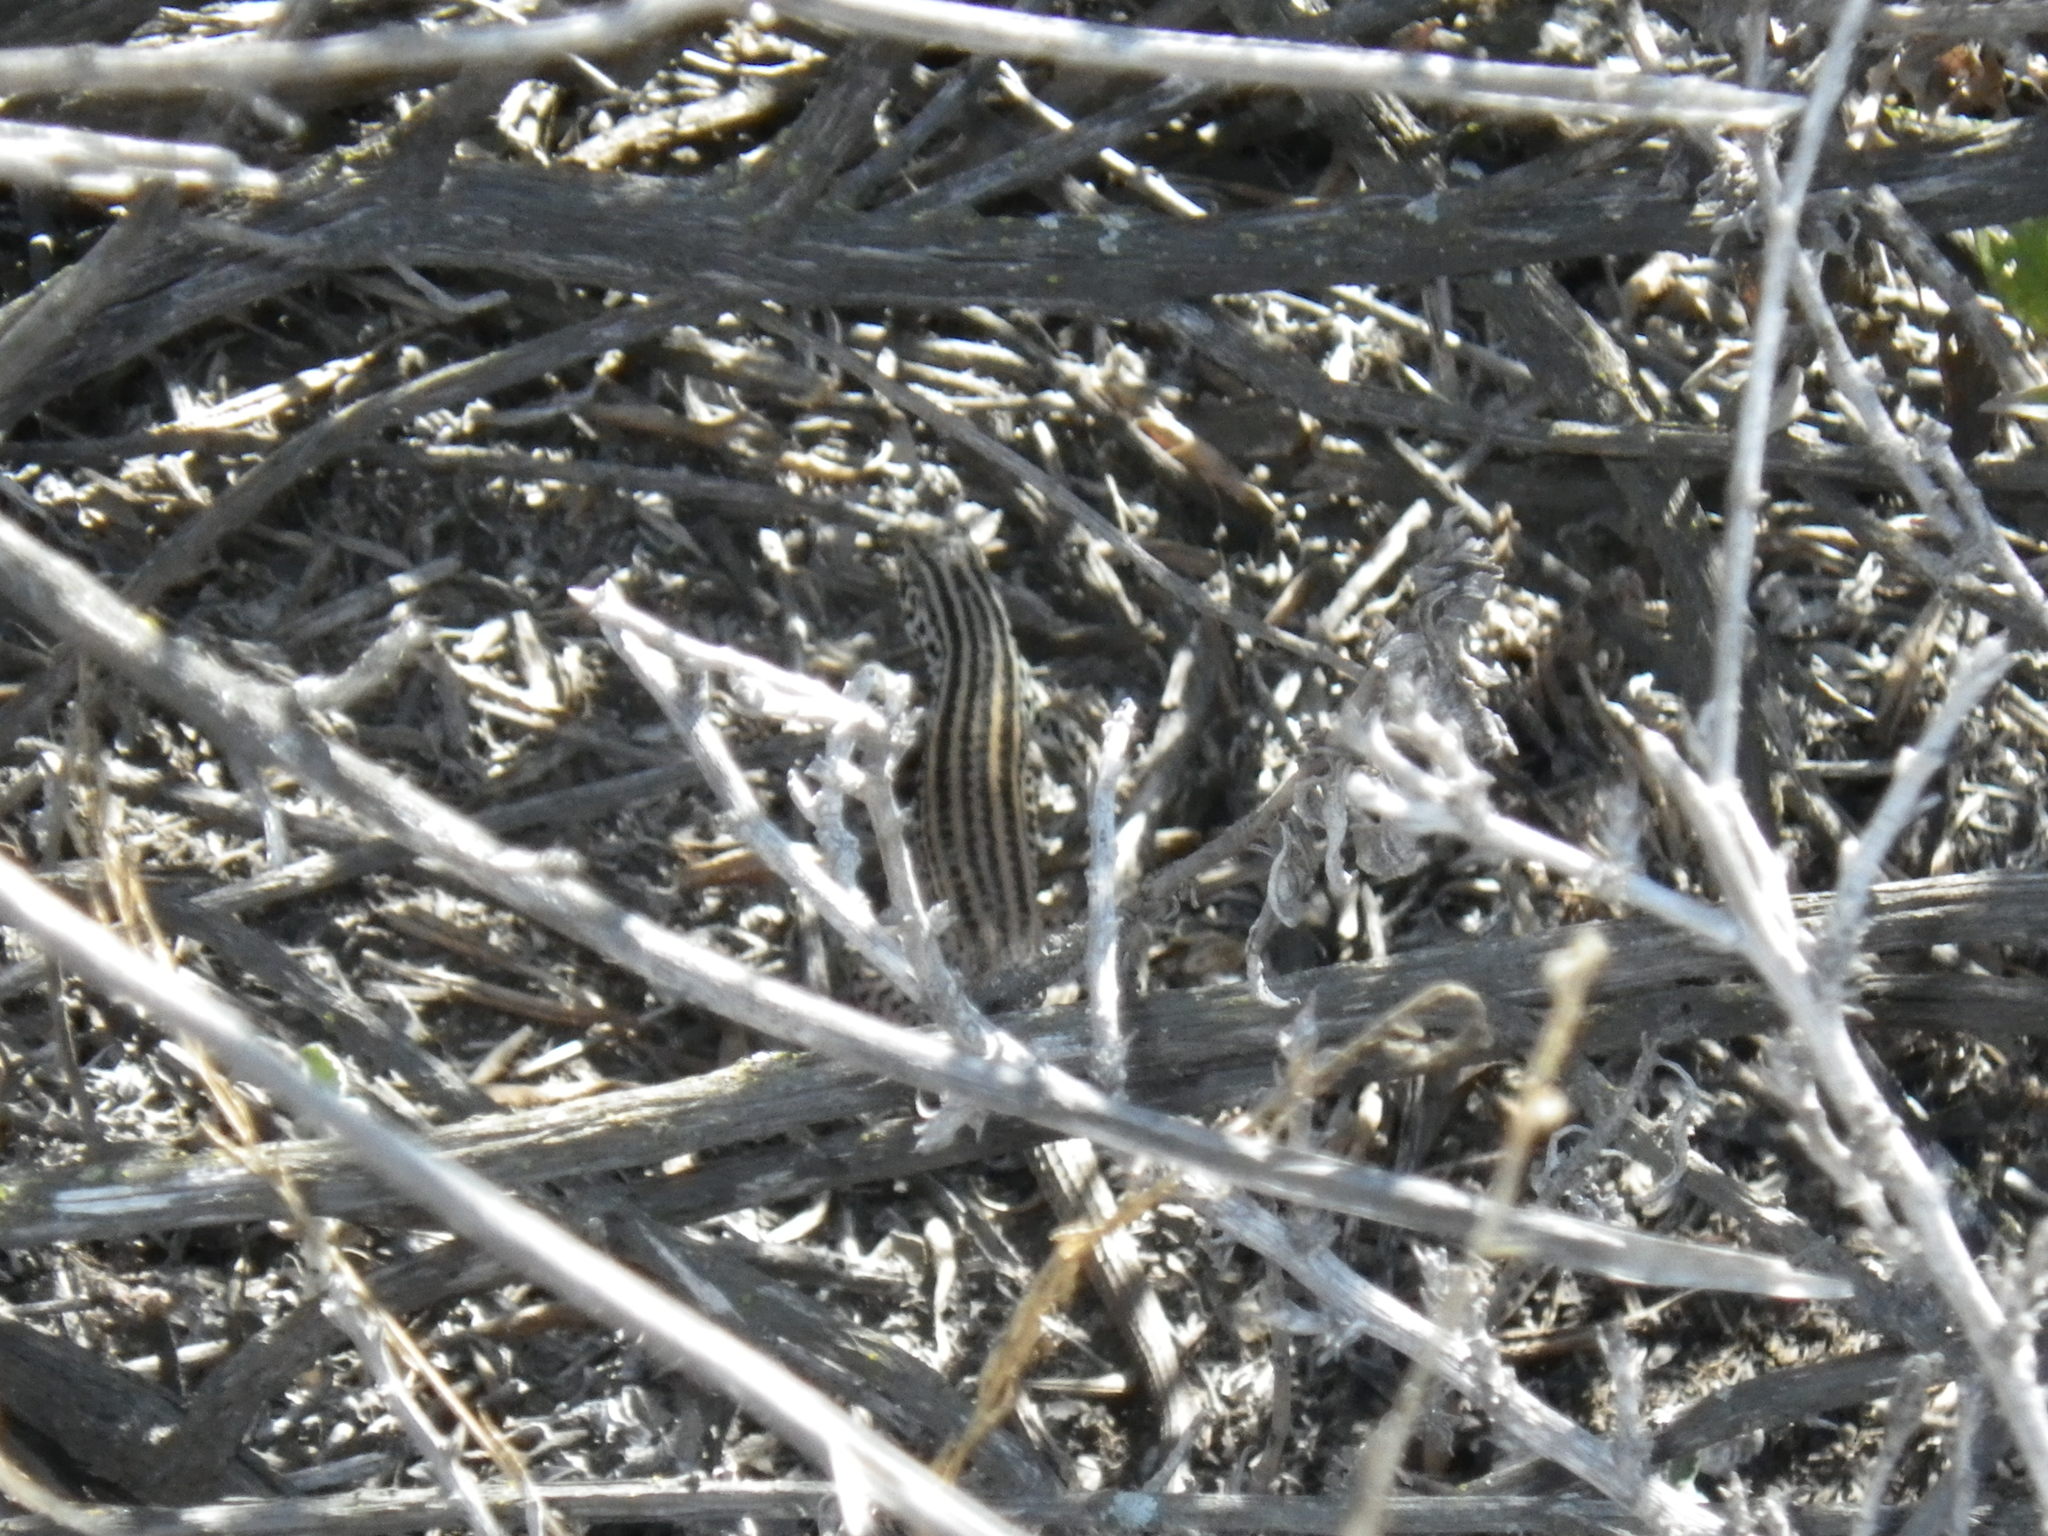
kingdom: Animalia
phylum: Chordata
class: Squamata
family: Teiidae
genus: Aspidoscelis
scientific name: Aspidoscelis tigris
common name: Tiger whiptail
